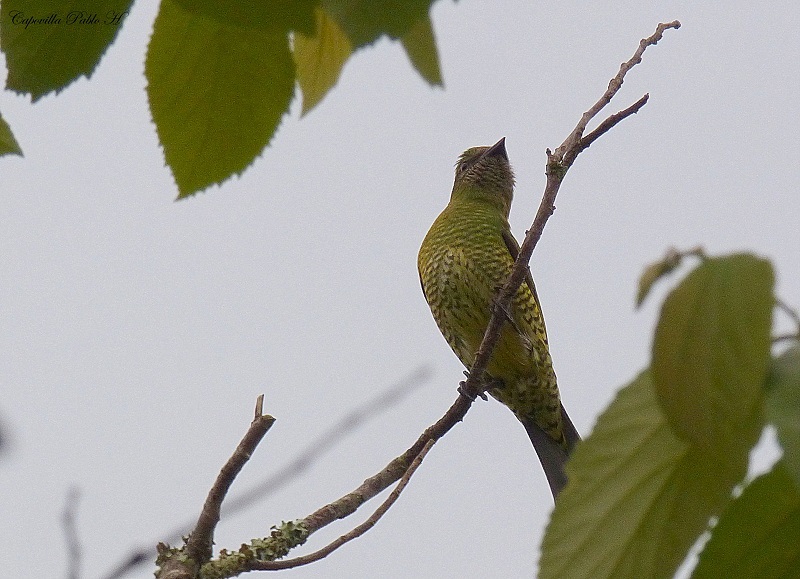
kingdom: Animalia
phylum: Chordata
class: Aves
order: Passeriformes
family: Thraupidae
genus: Tersina
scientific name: Tersina viridis
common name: Swallow tanager
